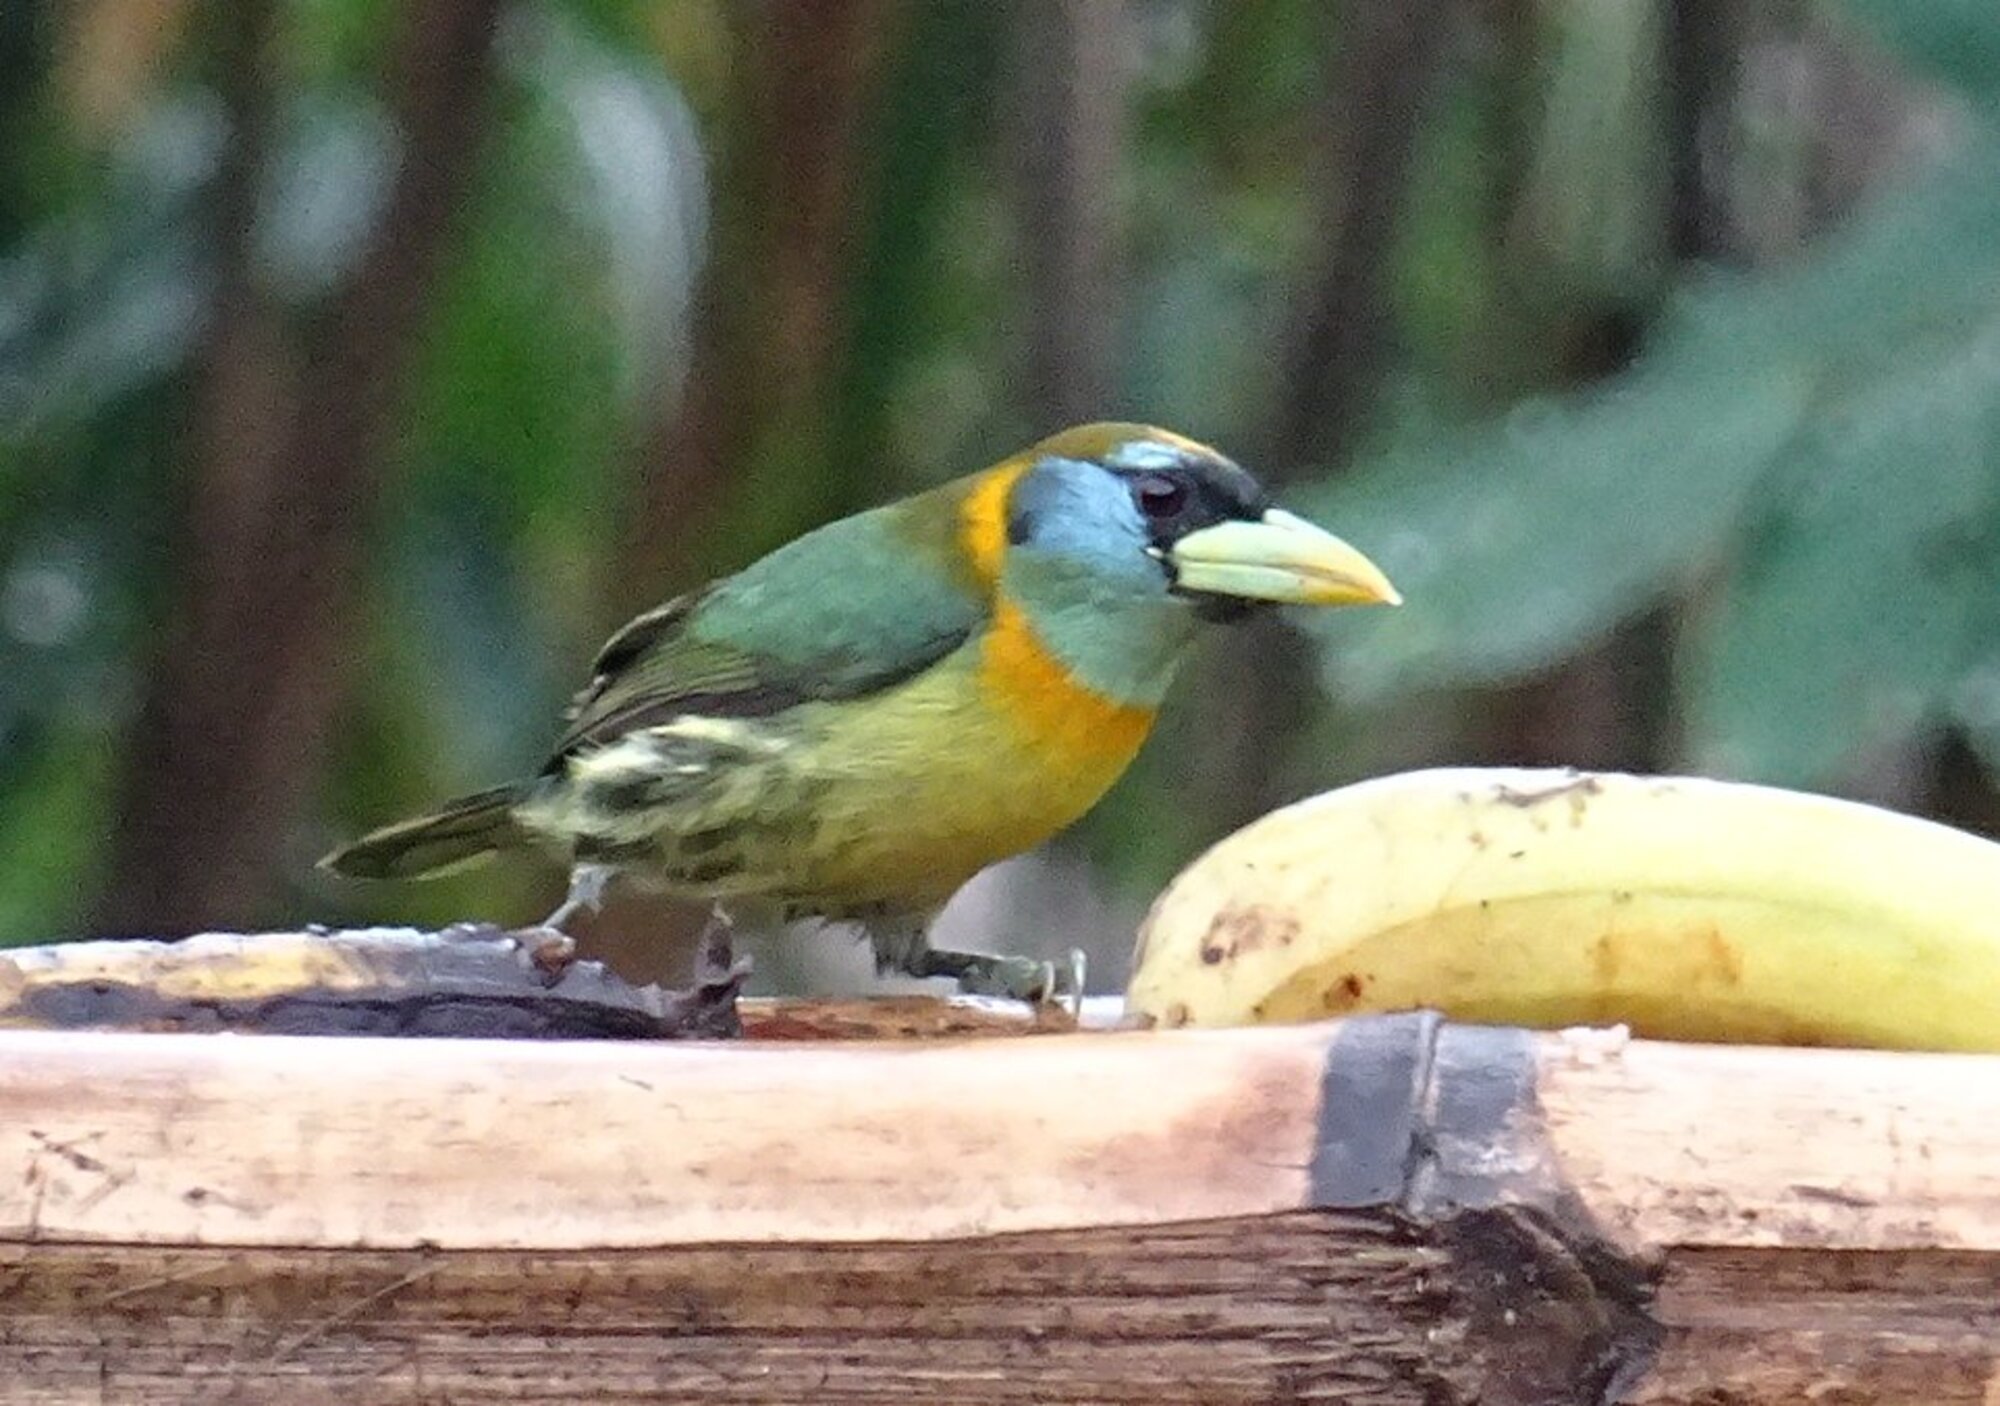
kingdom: Animalia
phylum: Chordata
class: Aves
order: Piciformes
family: Capitonidae
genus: Eubucco
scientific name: Eubucco bourcierii
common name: Red-headed barbet
